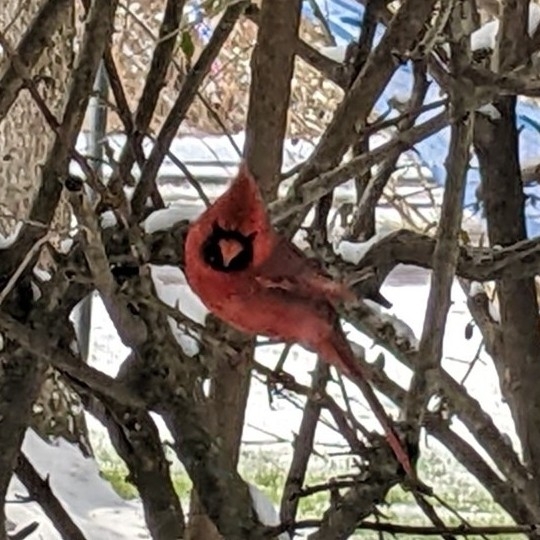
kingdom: Animalia
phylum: Chordata
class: Aves
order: Passeriformes
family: Cardinalidae
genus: Cardinalis
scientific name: Cardinalis cardinalis
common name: Northern cardinal
